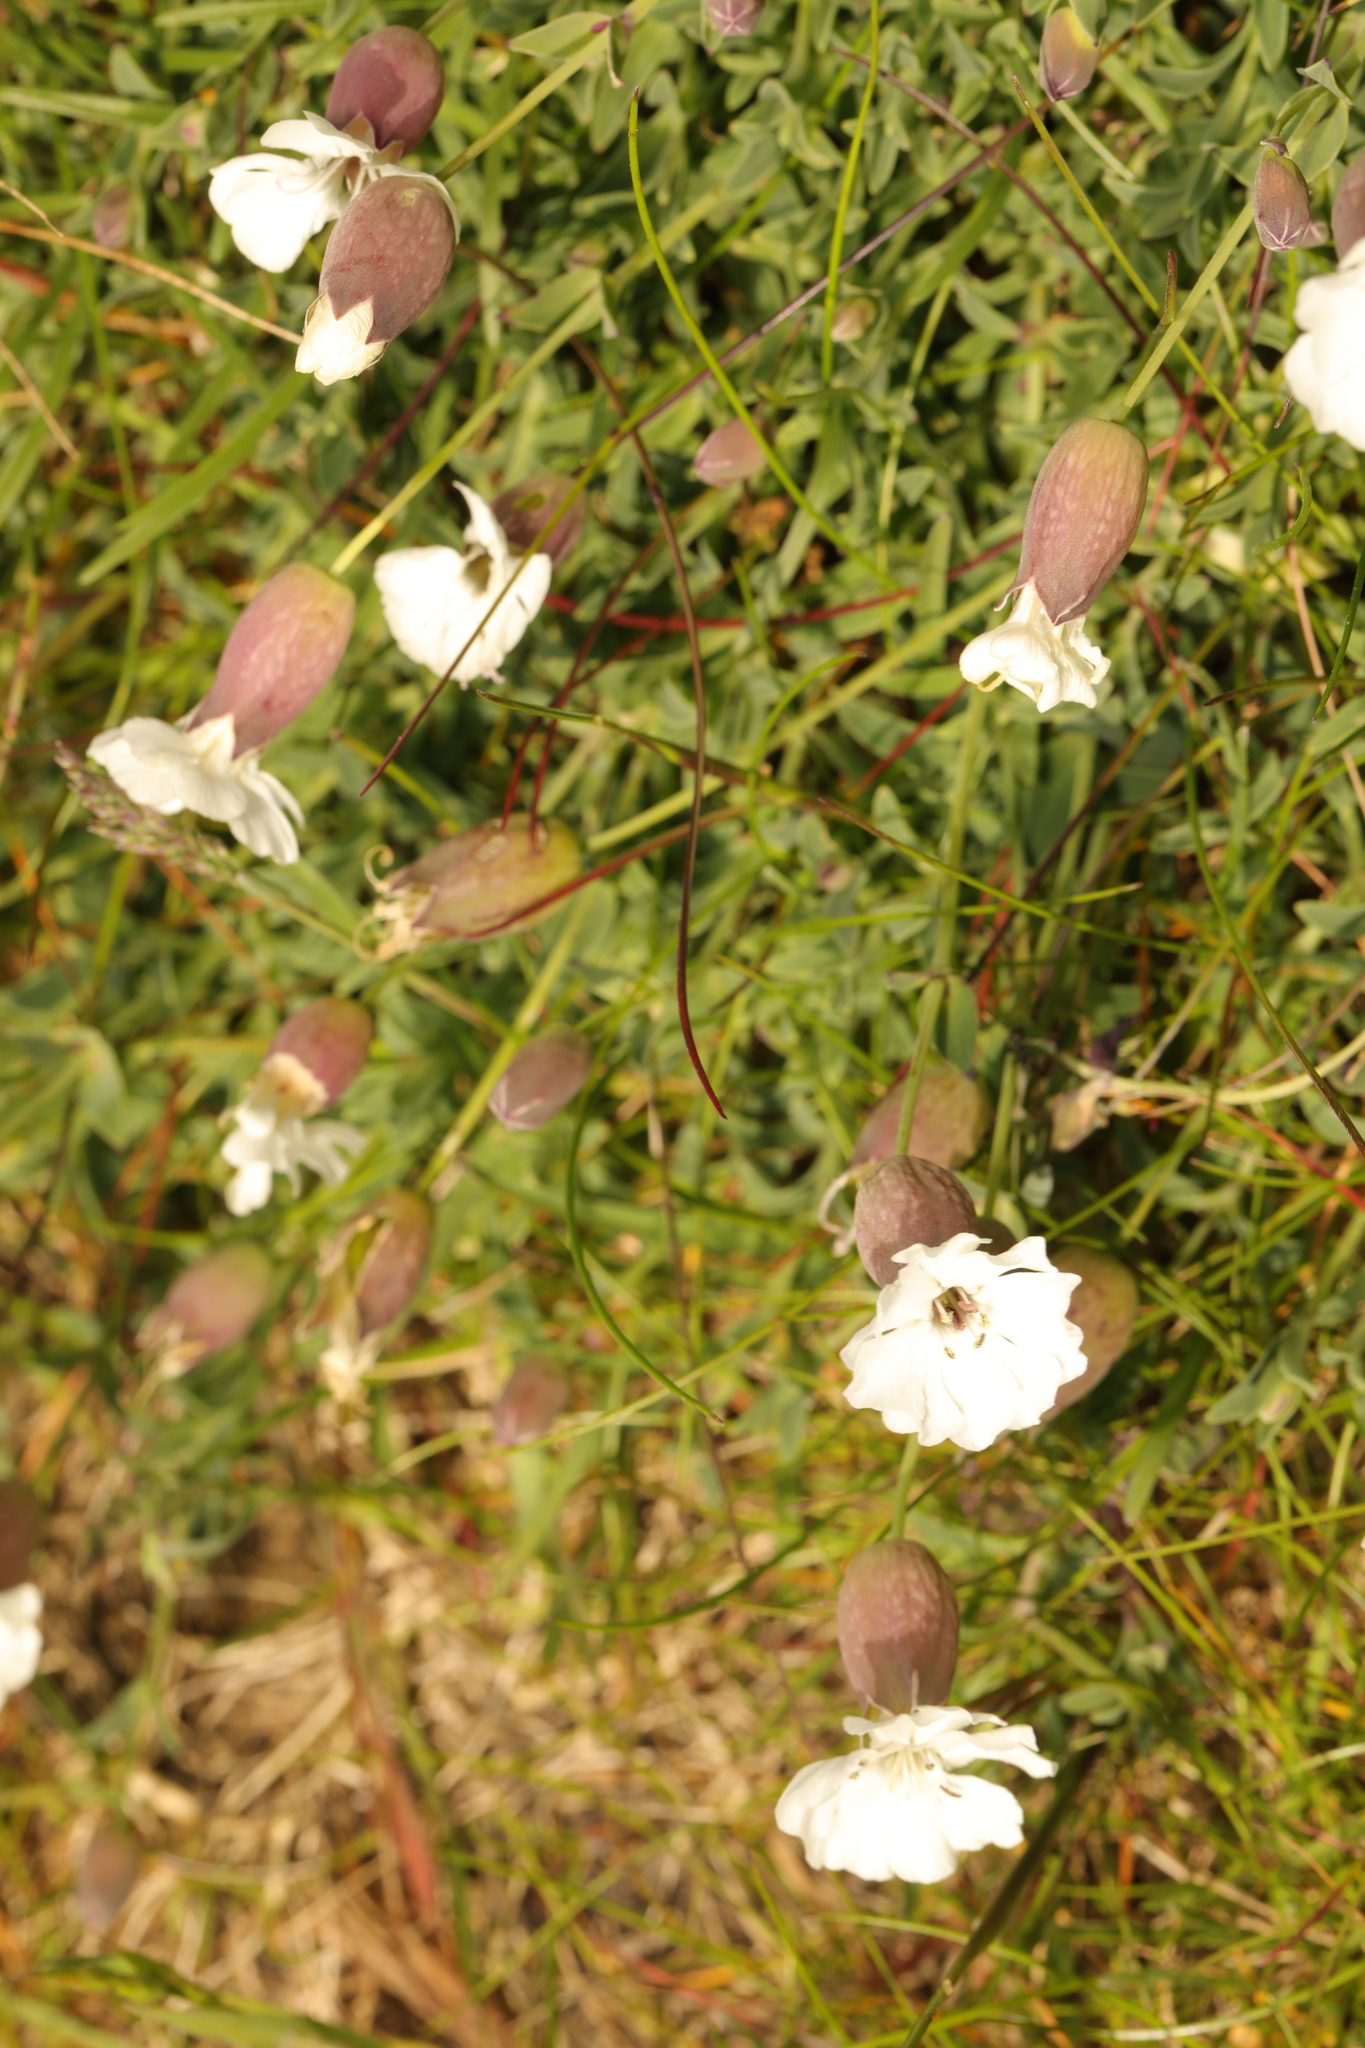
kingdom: Plantae
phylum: Tracheophyta
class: Magnoliopsida
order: Caryophyllales
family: Caryophyllaceae
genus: Silene
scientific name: Silene uniflora
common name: Sea campion
